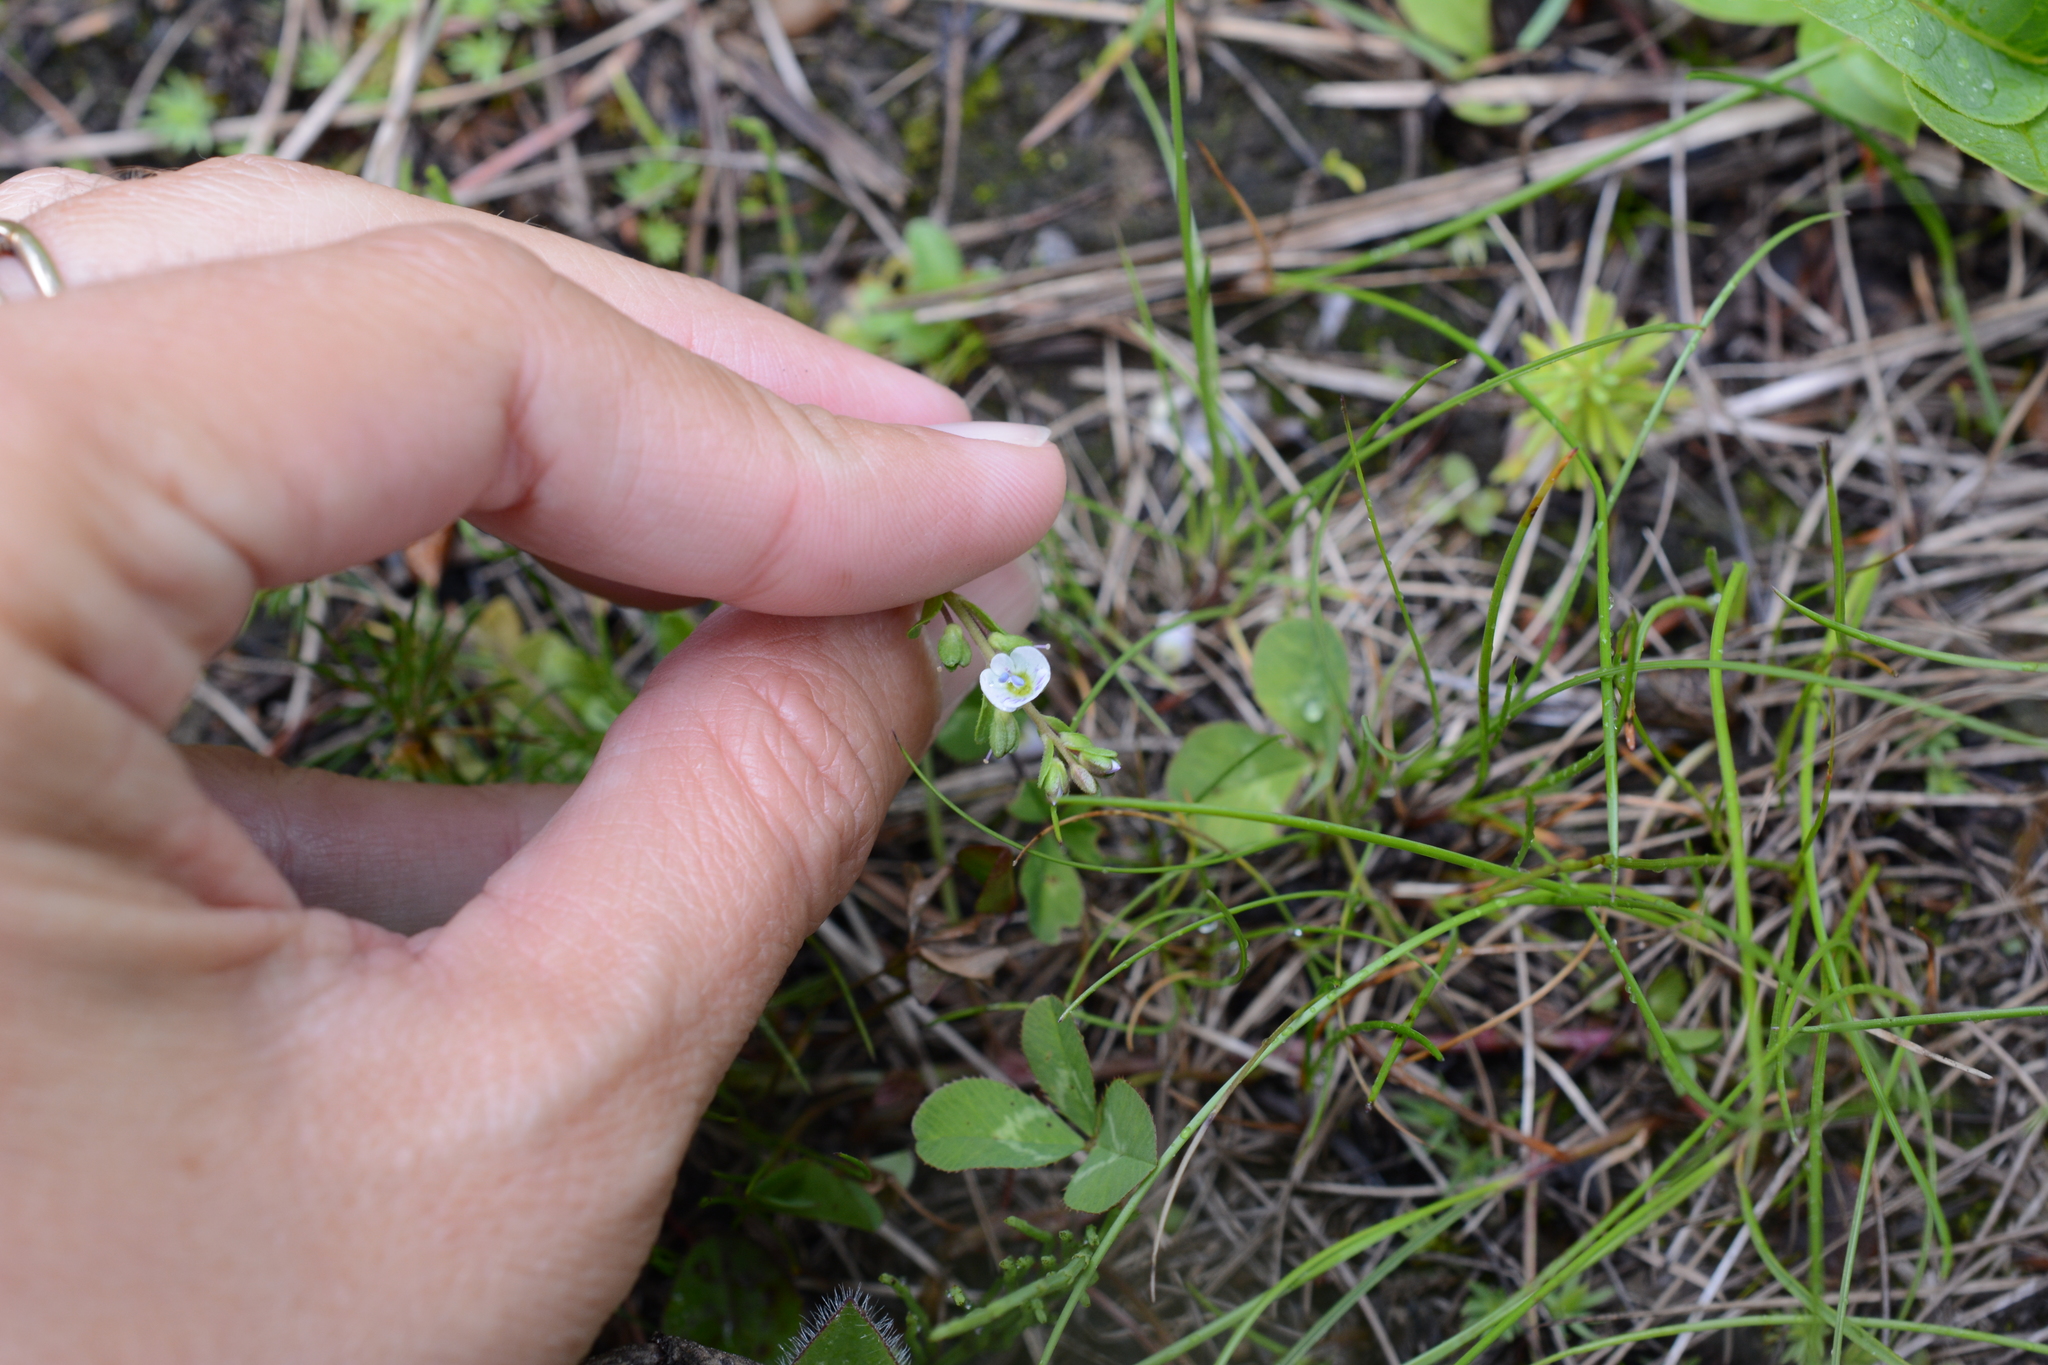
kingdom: Plantae
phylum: Tracheophyta
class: Magnoliopsida
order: Lamiales
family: Plantaginaceae
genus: Veronica
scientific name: Veronica serpyllifolia
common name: Thyme-leaved speedwell
